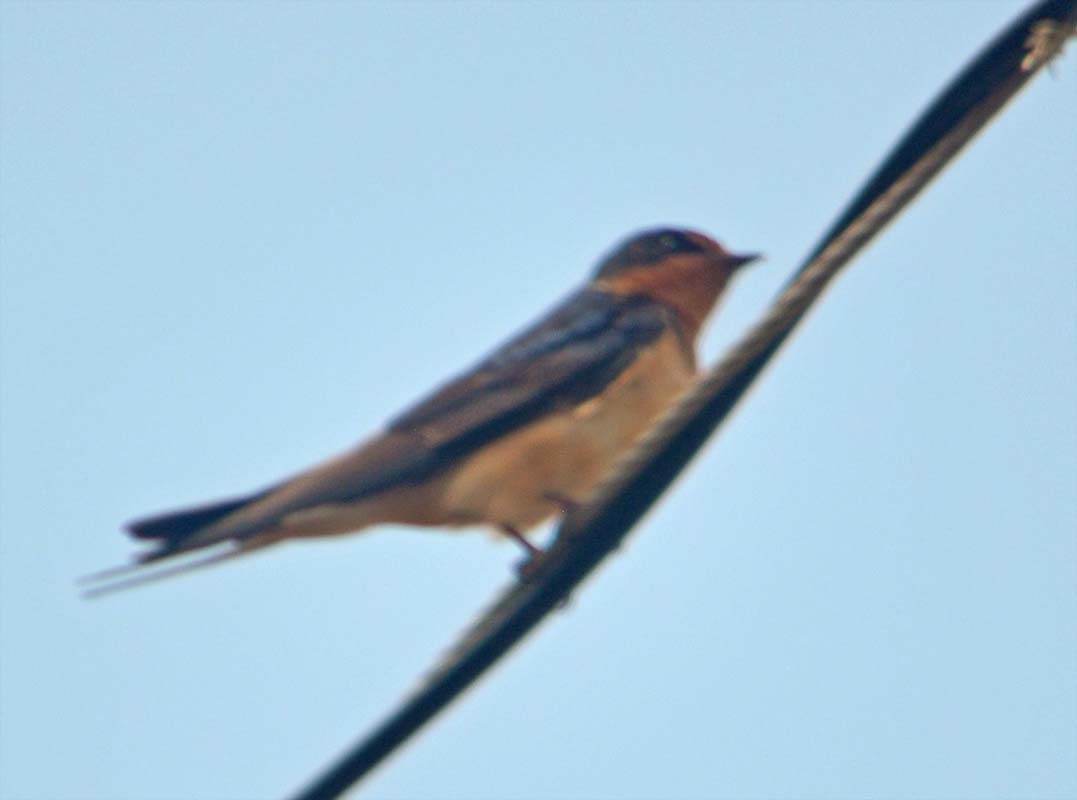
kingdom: Animalia
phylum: Chordata
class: Aves
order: Passeriformes
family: Hirundinidae
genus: Hirundo
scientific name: Hirundo rustica
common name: Barn swallow
